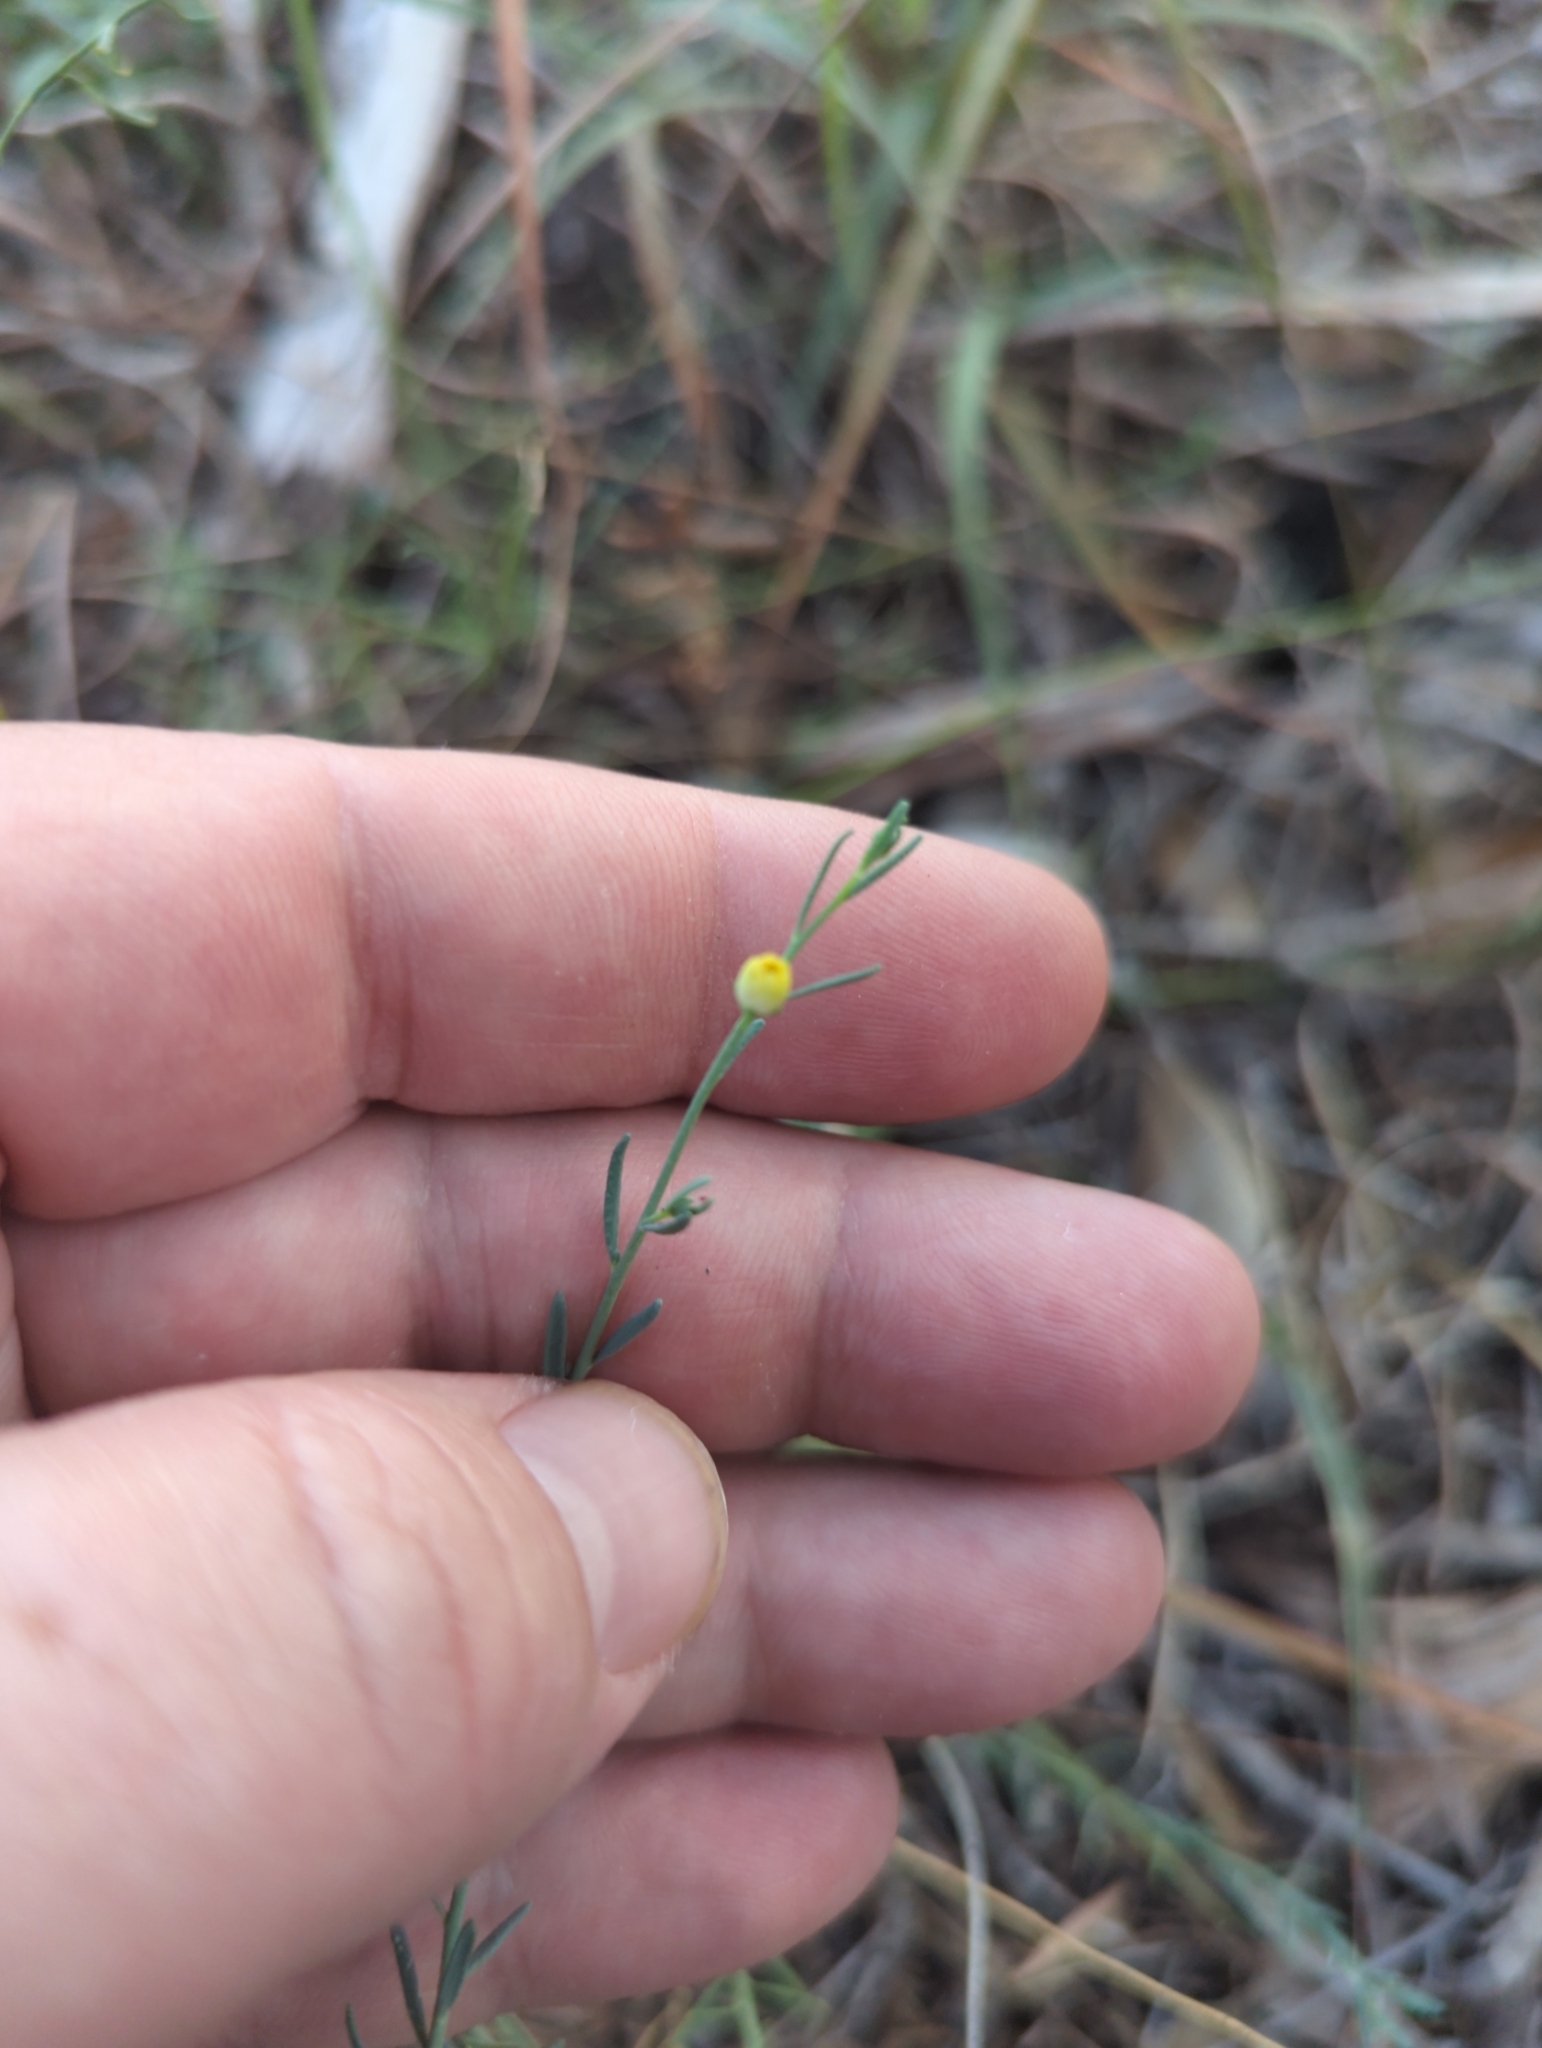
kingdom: Plantae
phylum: Tracheophyta
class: Magnoliopsida
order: Sapindales
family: Rutaceae
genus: Thamnosma
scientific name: Thamnosma texana
